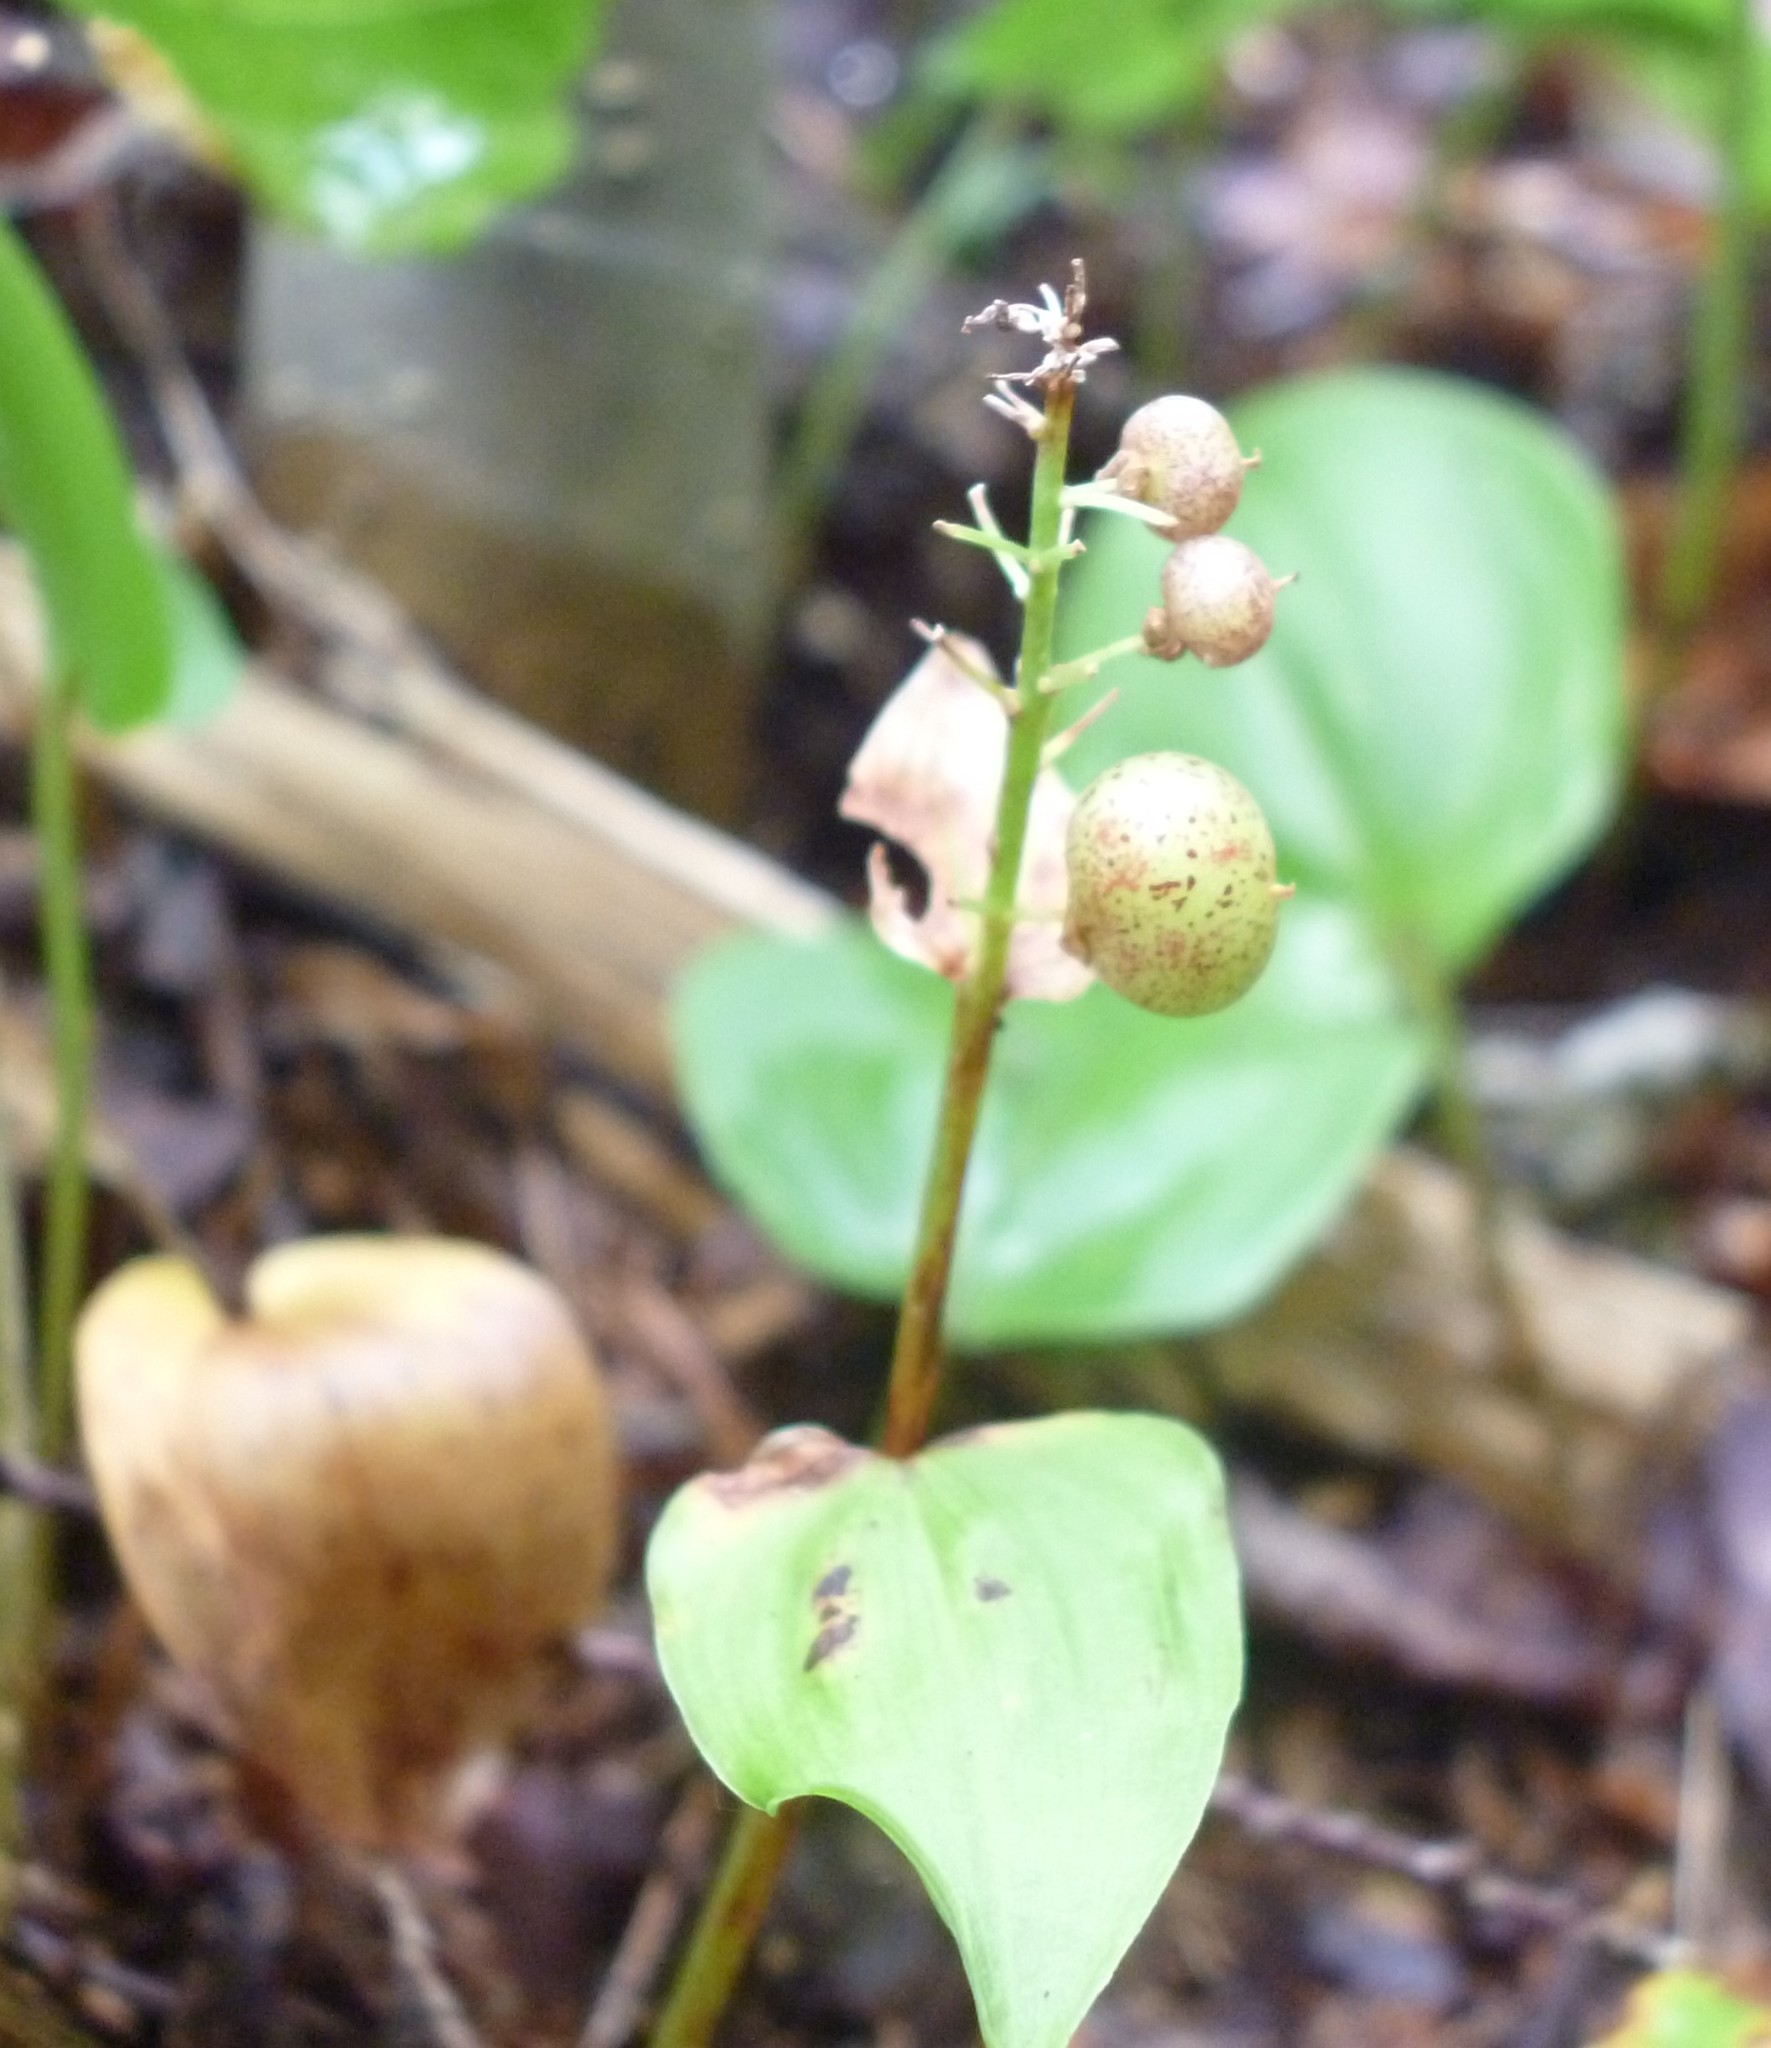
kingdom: Plantae
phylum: Tracheophyta
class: Liliopsida
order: Asparagales
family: Asparagaceae
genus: Maianthemum
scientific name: Maianthemum canadense
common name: False lily-of-the-valley
